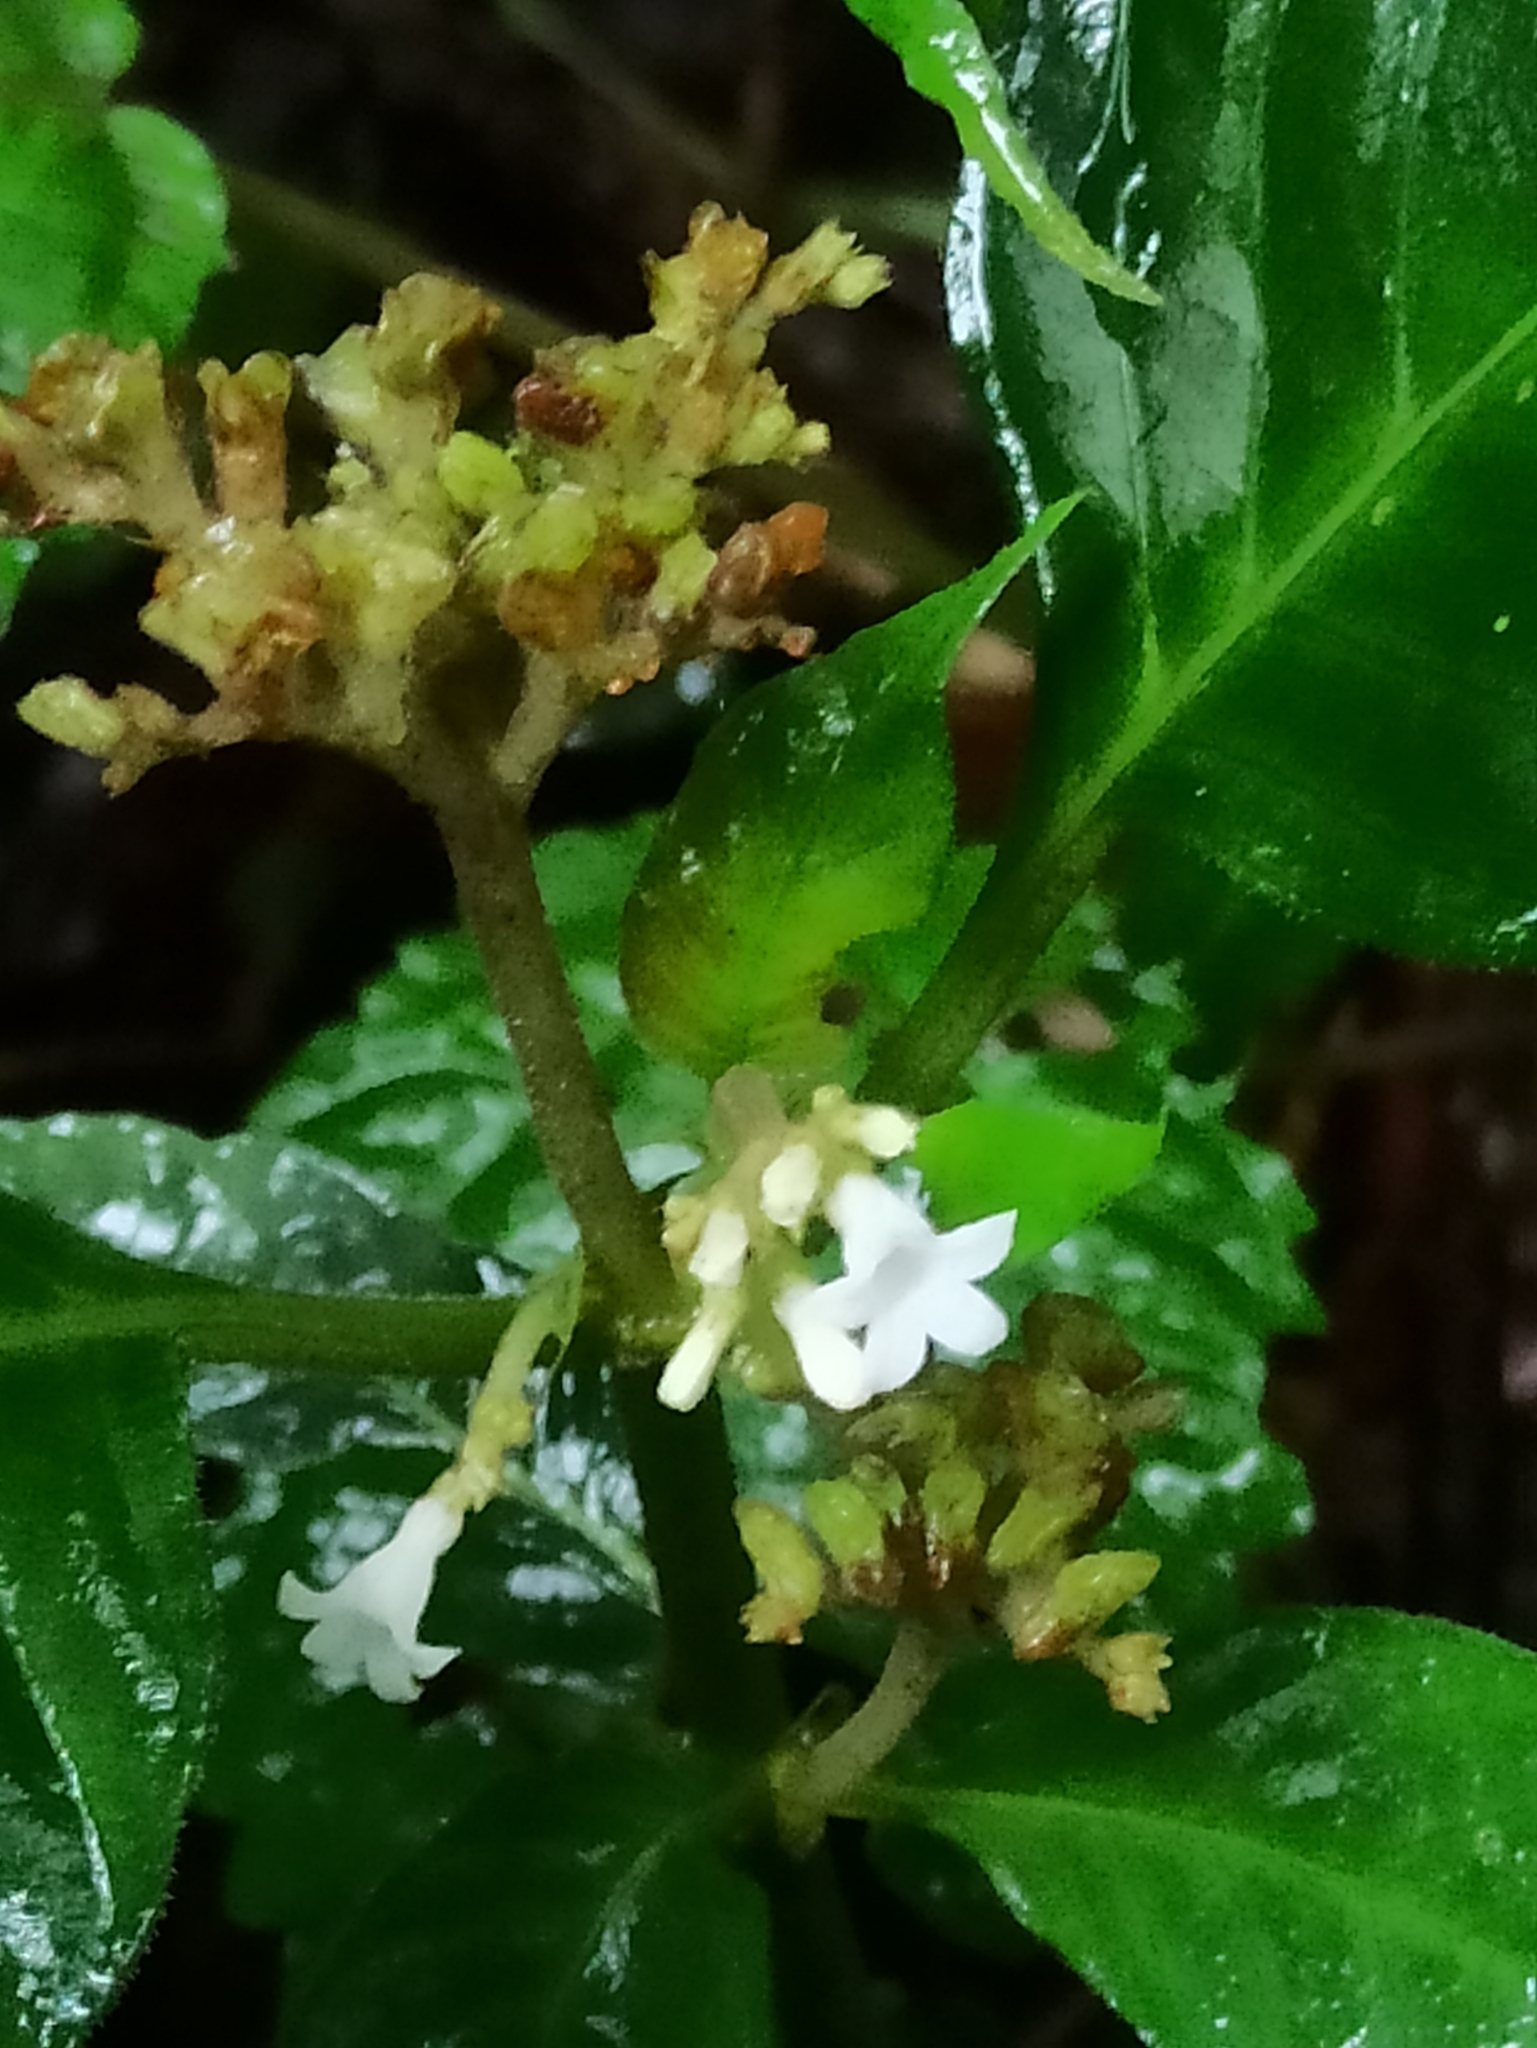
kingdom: Plantae
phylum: Tracheophyta
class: Magnoliopsida
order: Gentianales
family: Rubiaceae
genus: Ophiorrhiza
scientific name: Ophiorrhiza mungos
